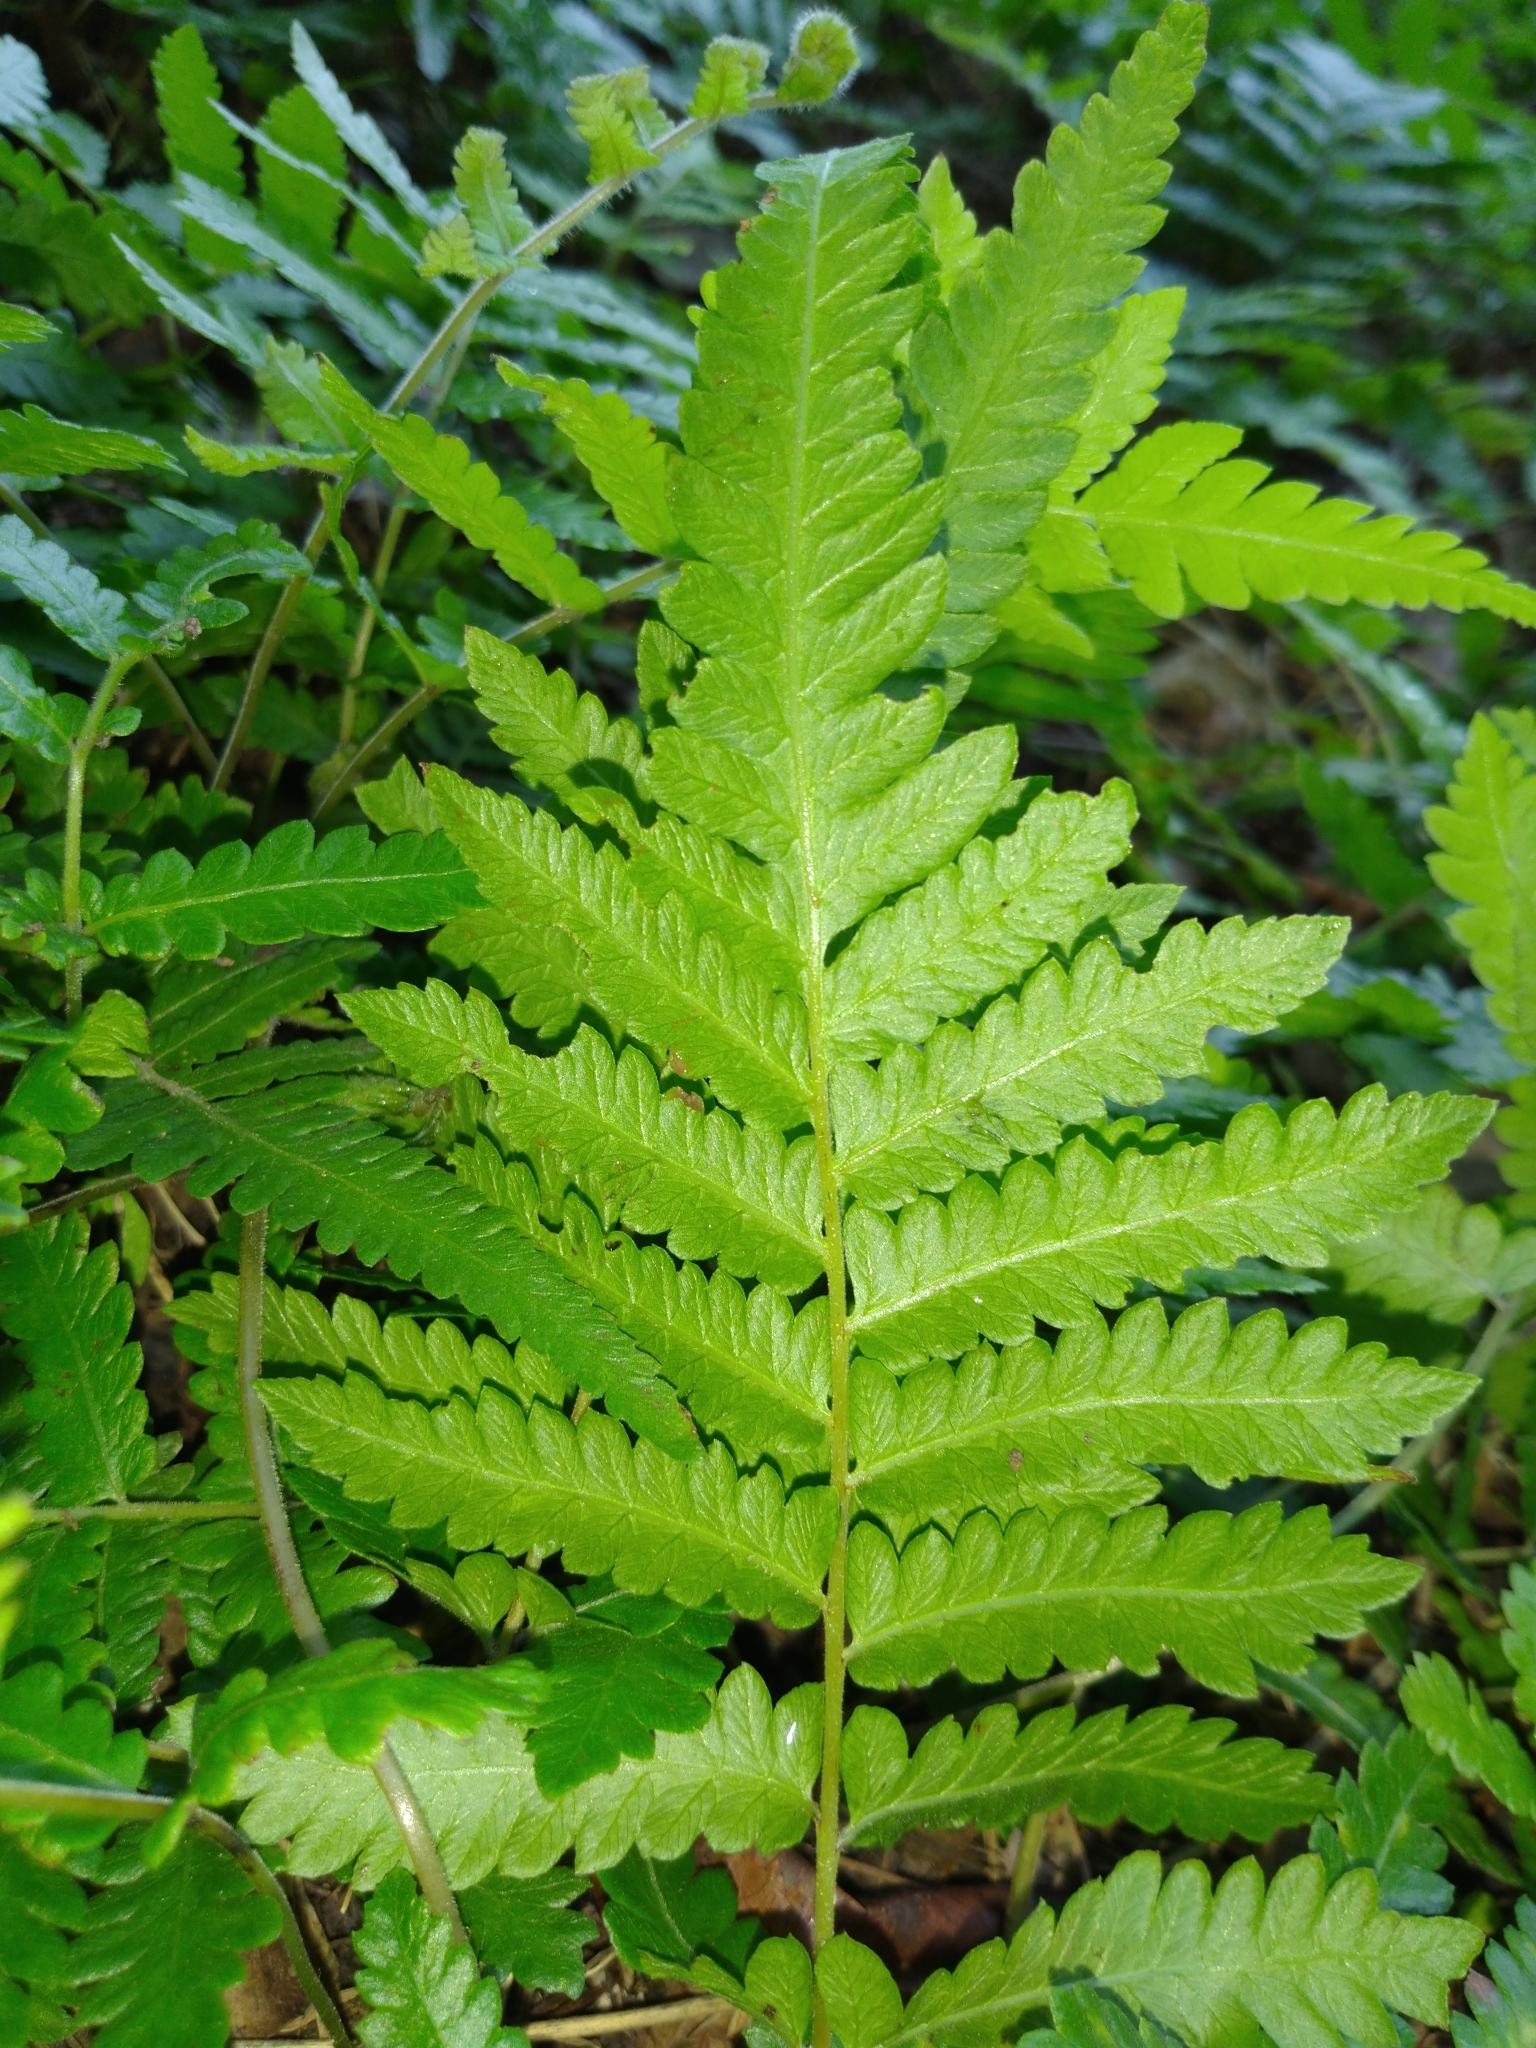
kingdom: Plantae
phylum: Tracheophyta
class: Polypodiopsida
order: Polypodiales
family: Thelypteridaceae
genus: Christella
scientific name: Christella acuminata
